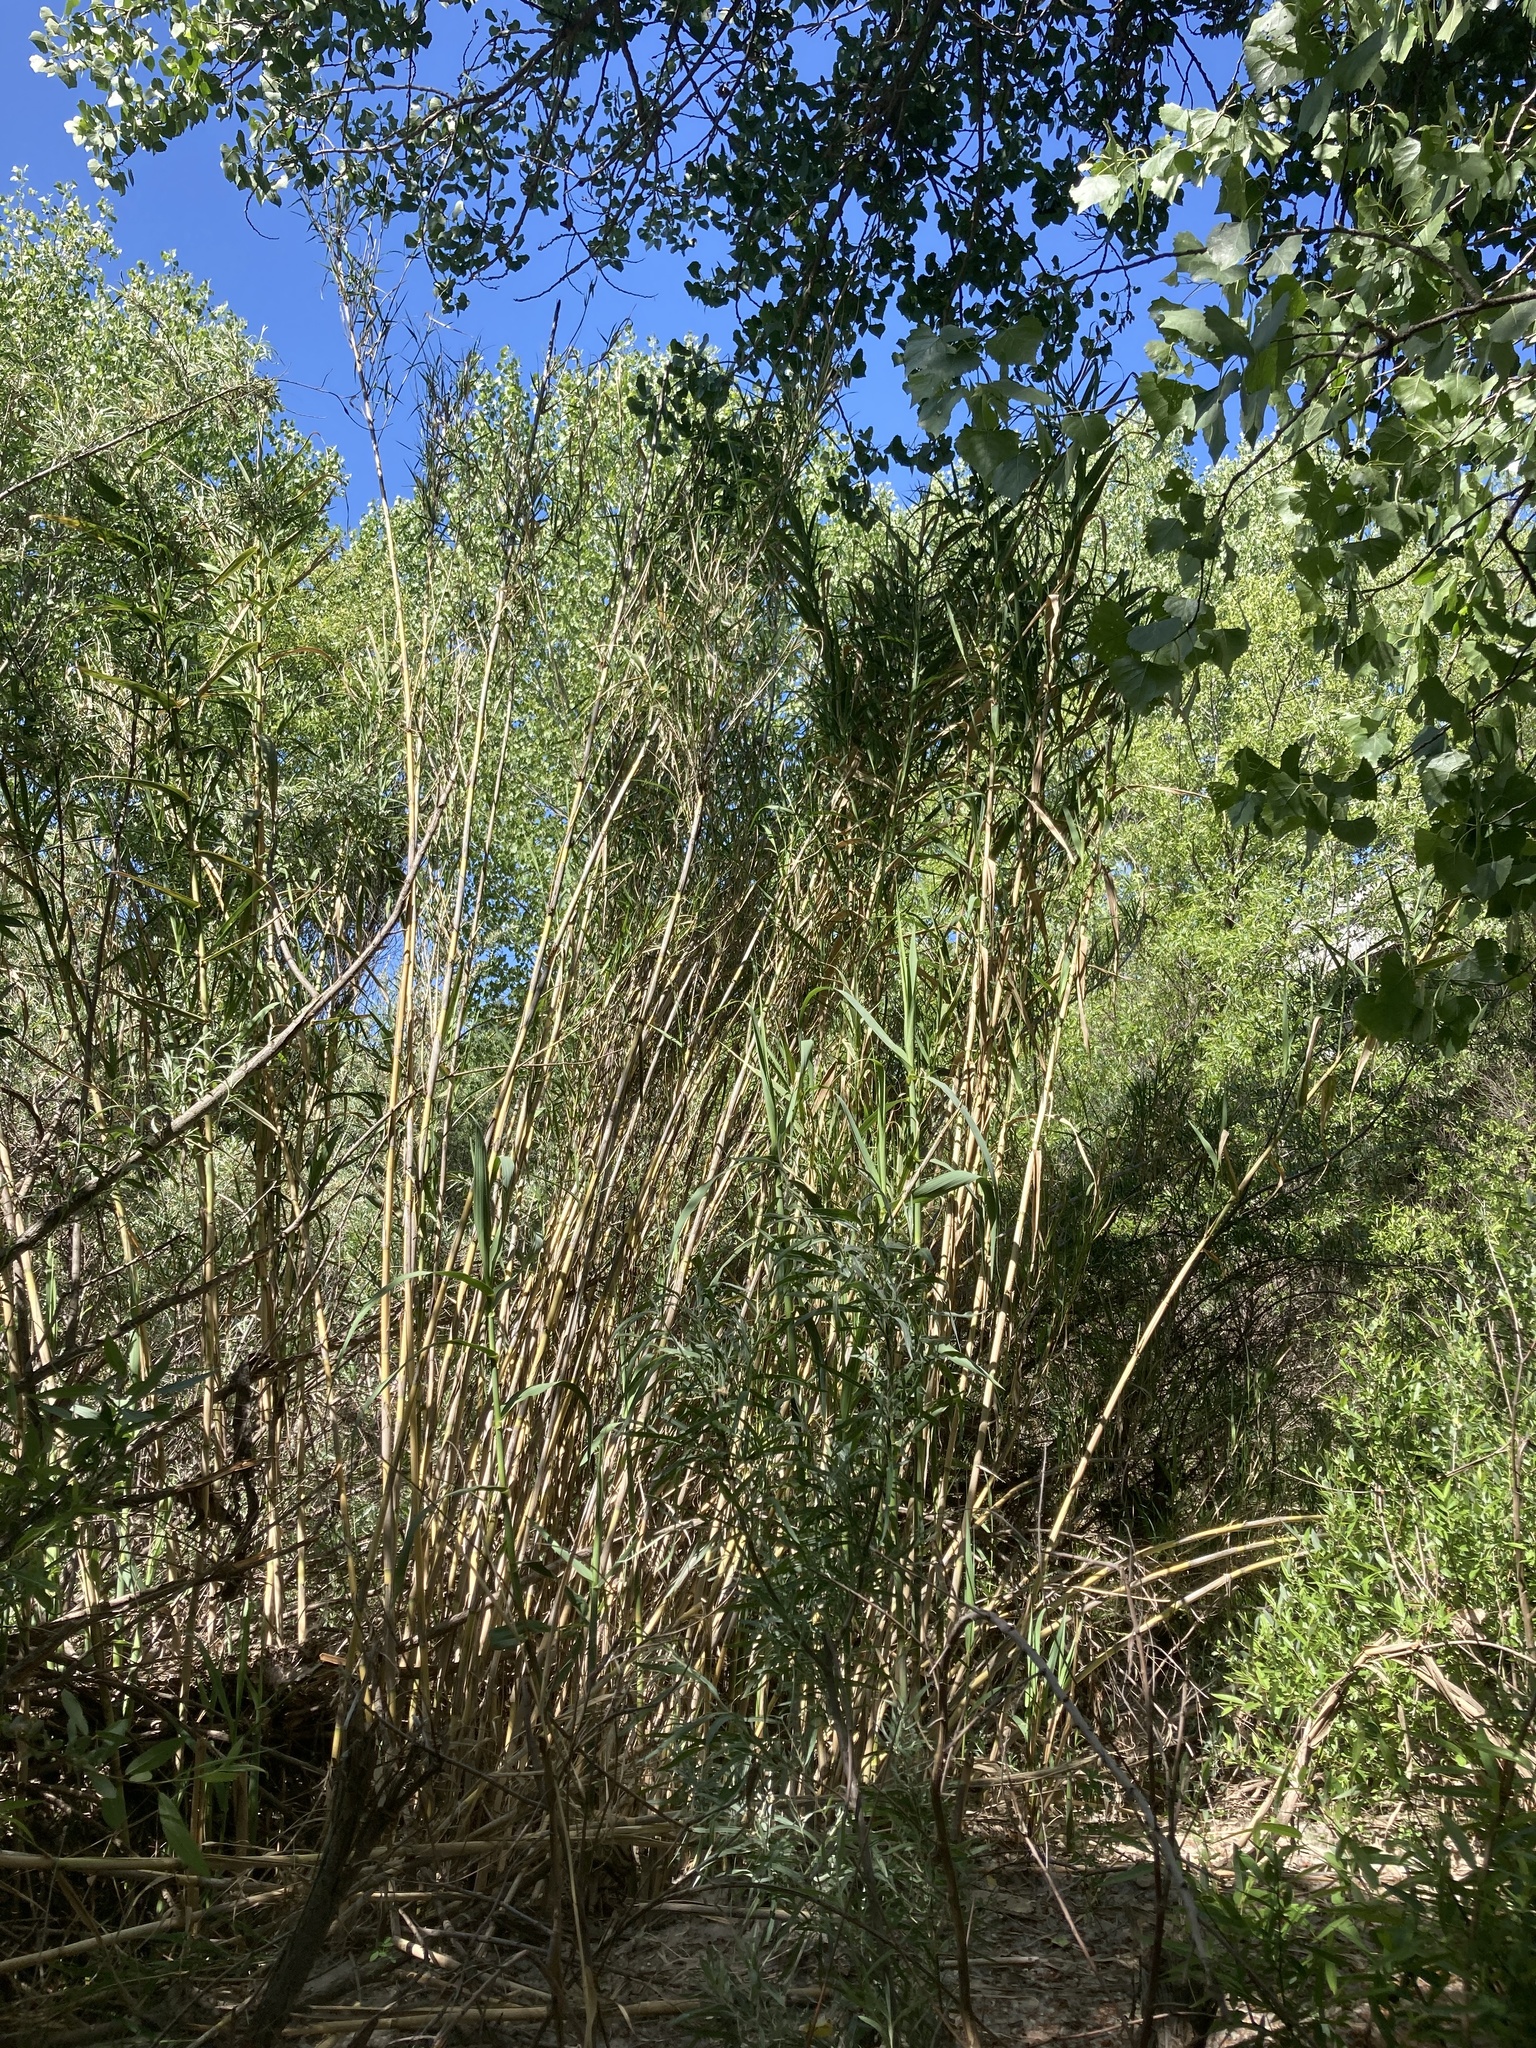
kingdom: Plantae
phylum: Tracheophyta
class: Liliopsida
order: Poales
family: Poaceae
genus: Arundo
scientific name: Arundo donax
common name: Giant reed
